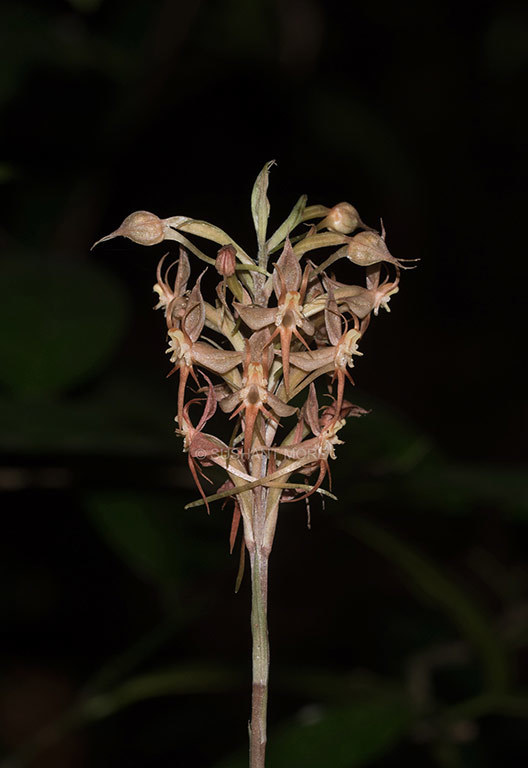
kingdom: Plantae
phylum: Tracheophyta
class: Liliopsida
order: Asparagales
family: Orchidaceae
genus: Habenaria
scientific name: Habenaria stenopetala
